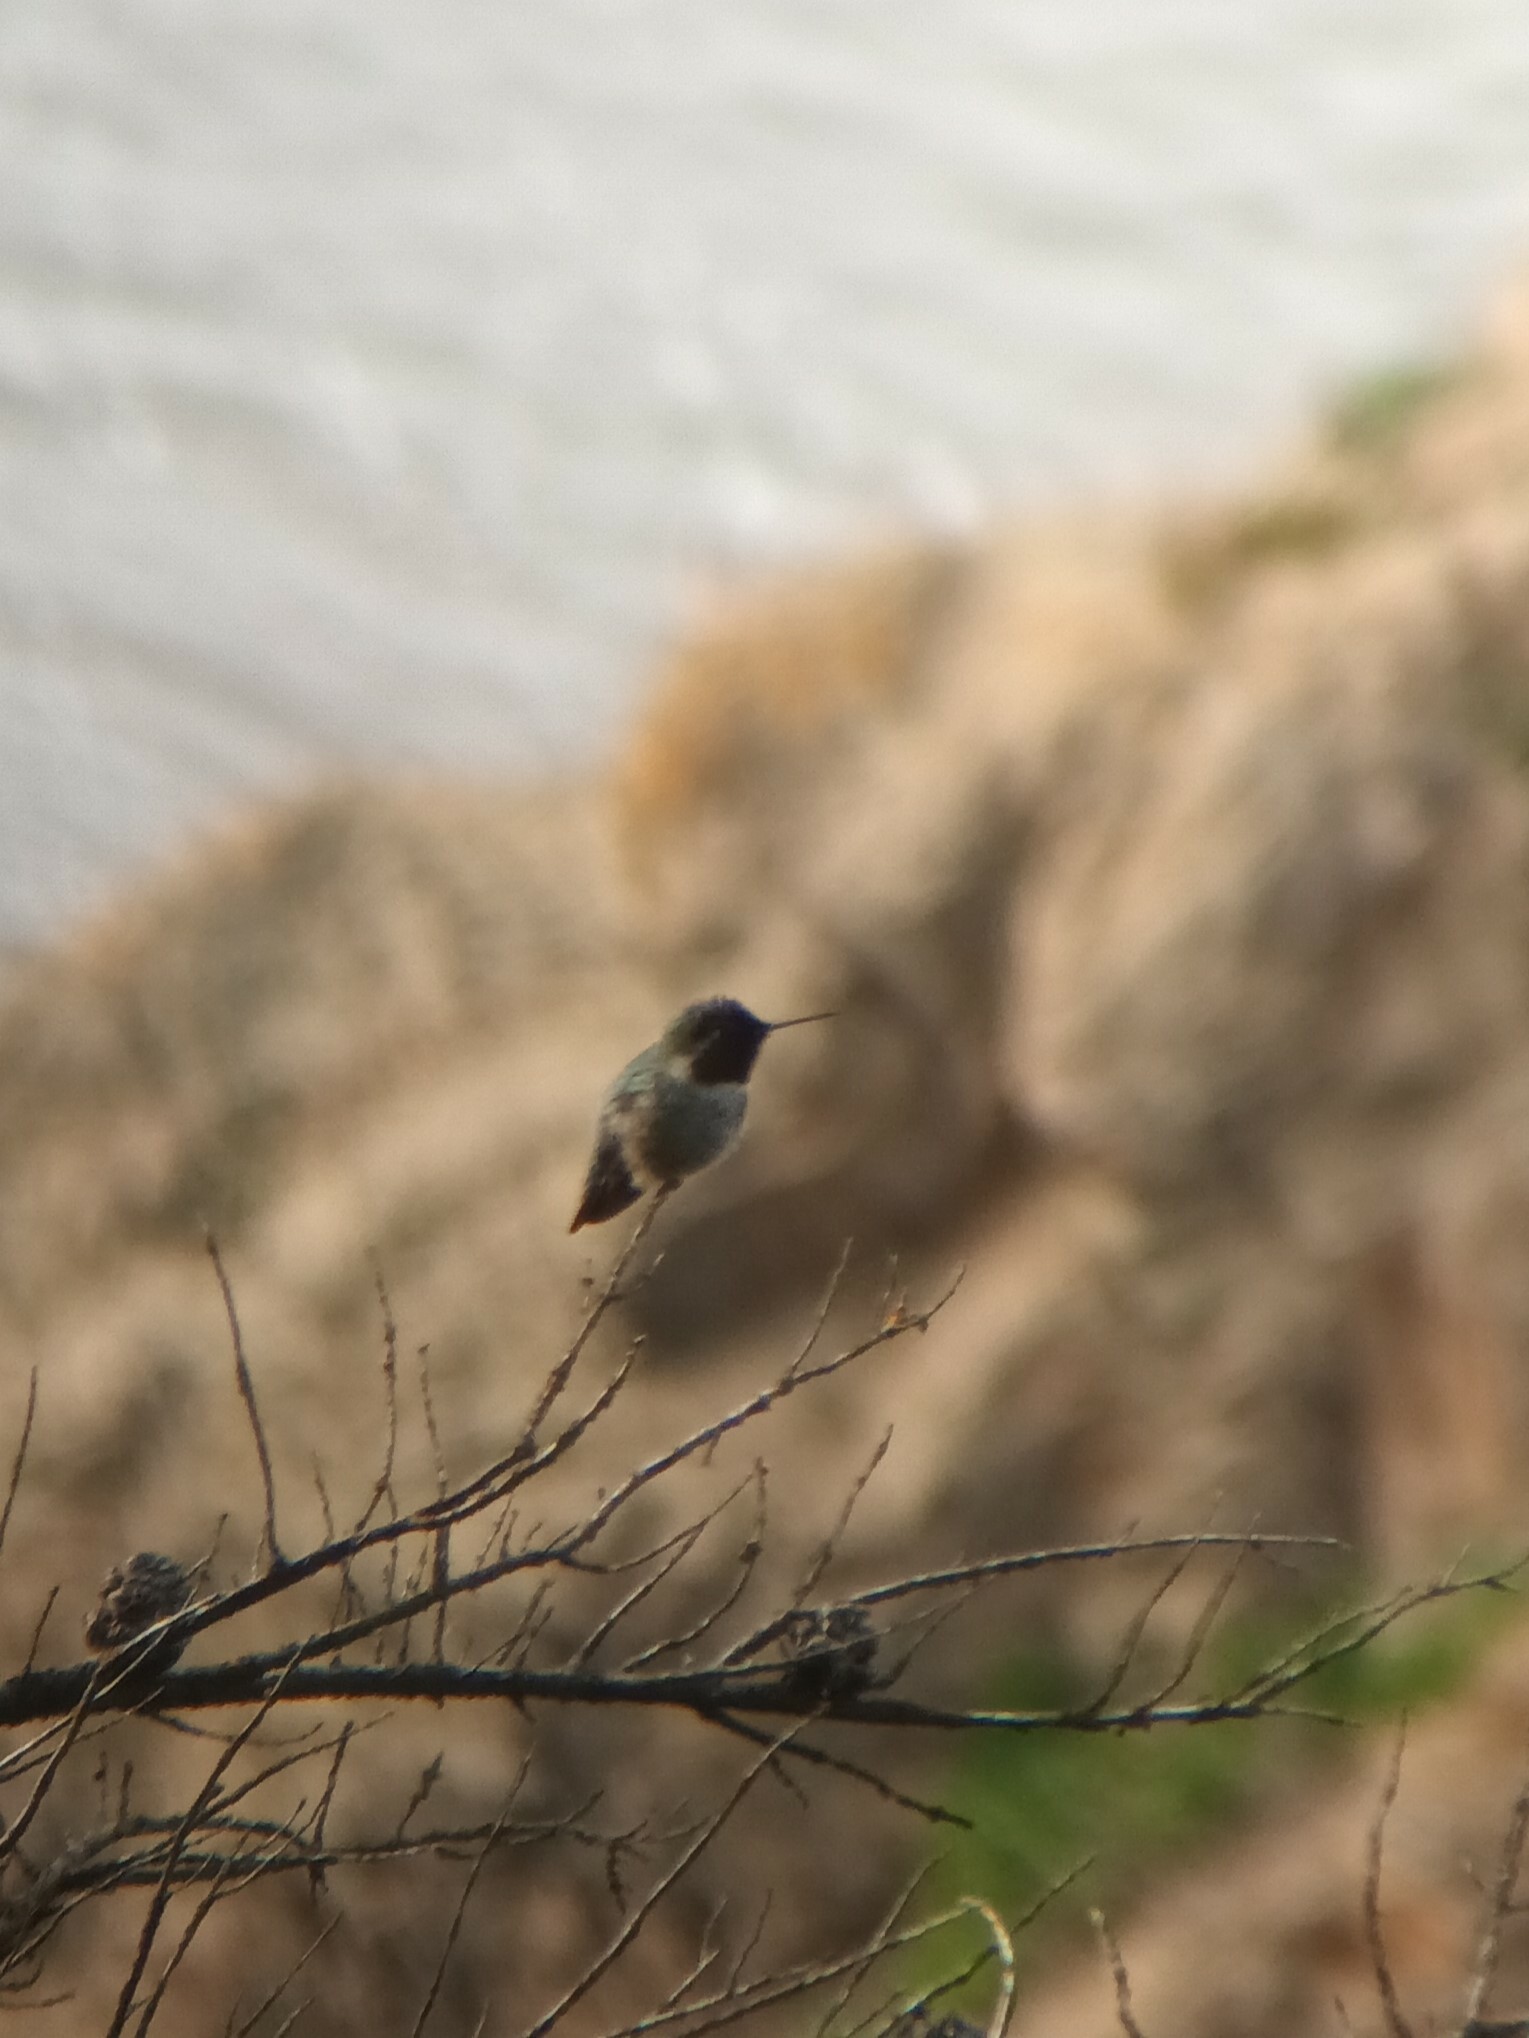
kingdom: Animalia
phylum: Chordata
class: Aves
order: Apodiformes
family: Trochilidae
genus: Calypte
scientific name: Calypte anna
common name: Anna's hummingbird
